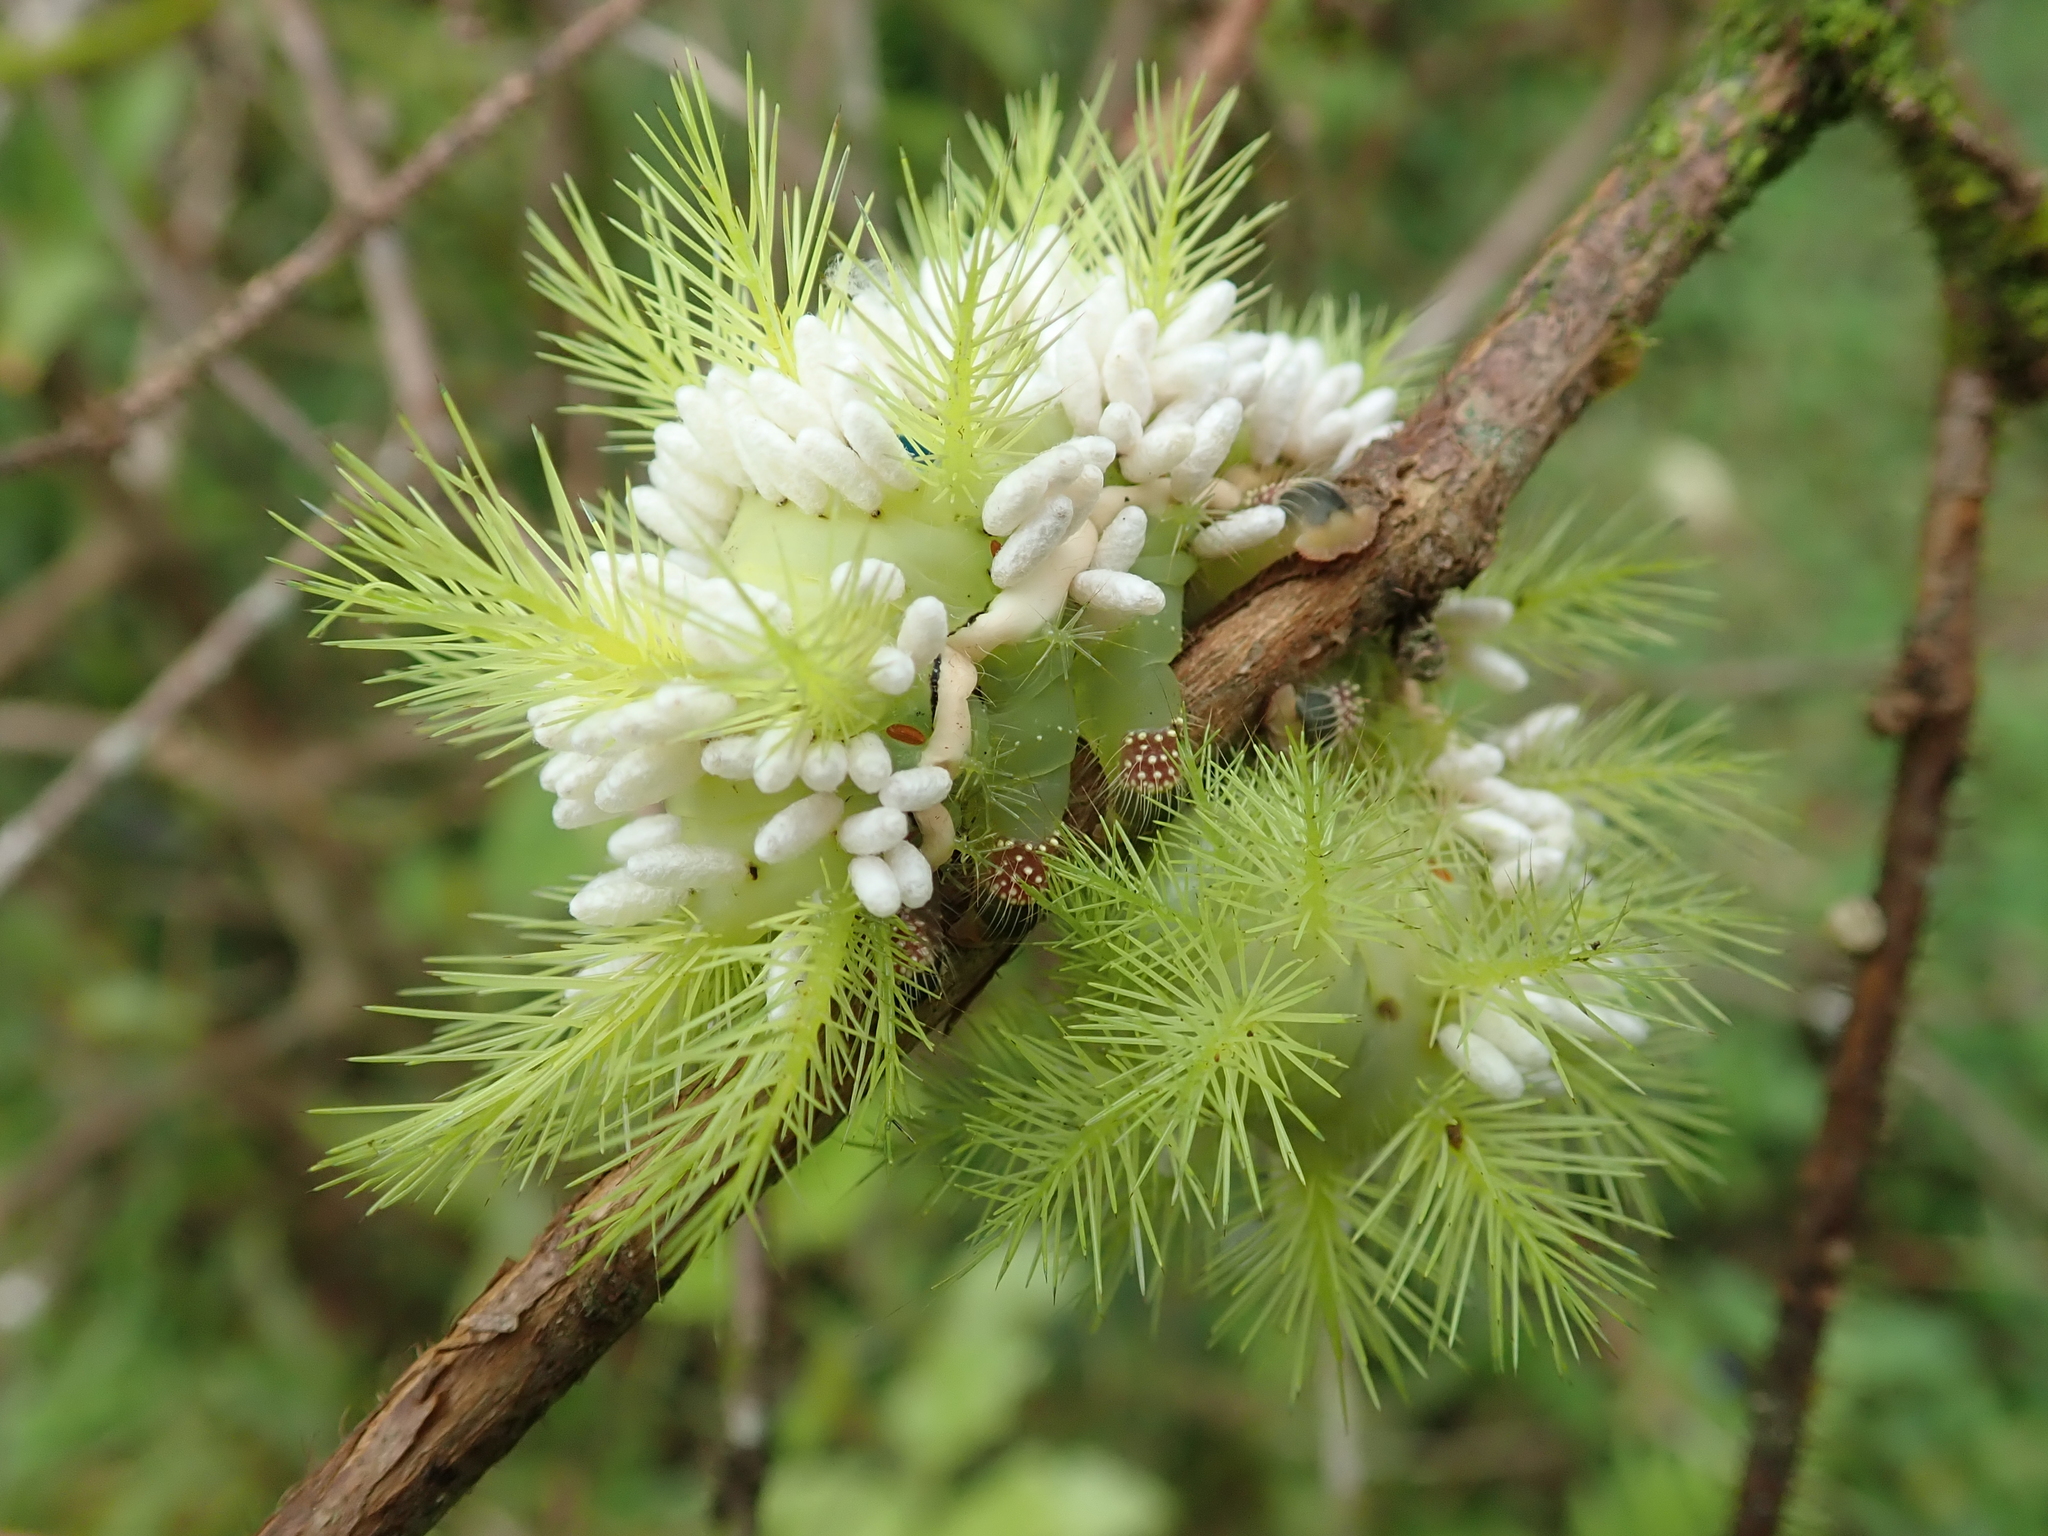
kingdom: Animalia
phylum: Arthropoda
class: Insecta
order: Lepidoptera
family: Saturniidae
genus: Automeris
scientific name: Automeris illustris
